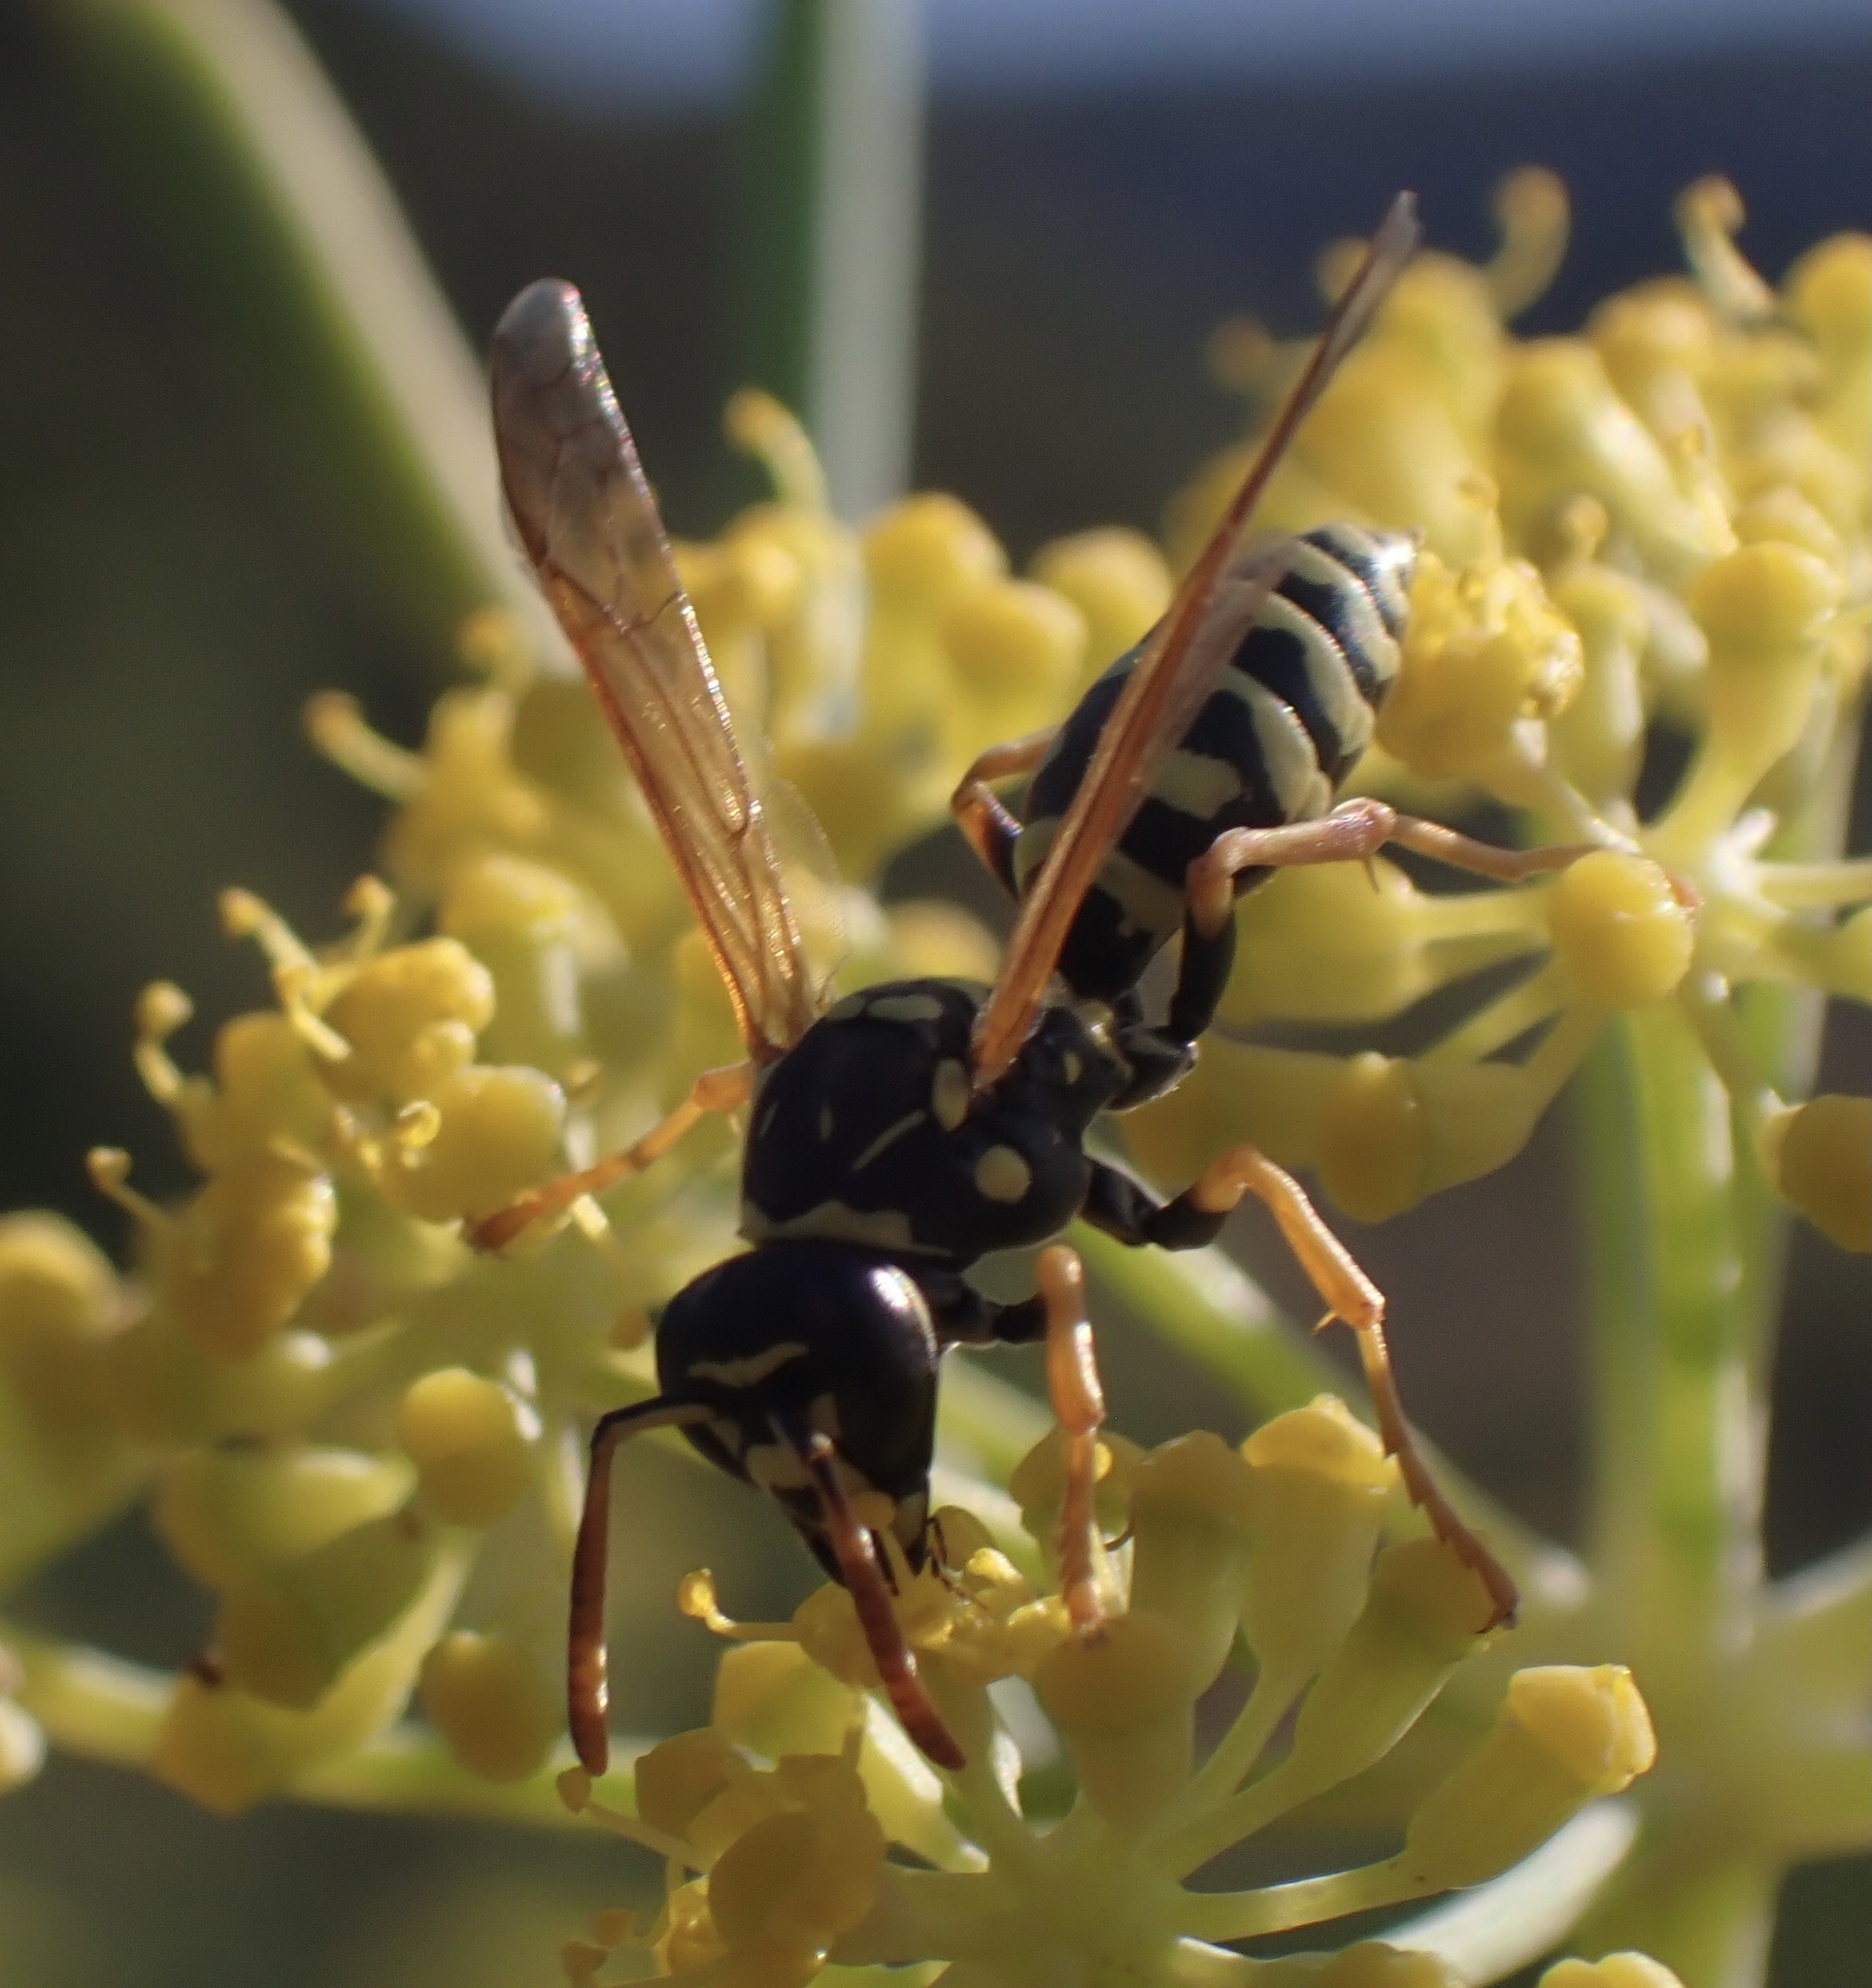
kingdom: Animalia
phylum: Arthropoda
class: Insecta
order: Hymenoptera
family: Eumenidae
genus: Polistes
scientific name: Polistes gallicus
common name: Paper wasp
